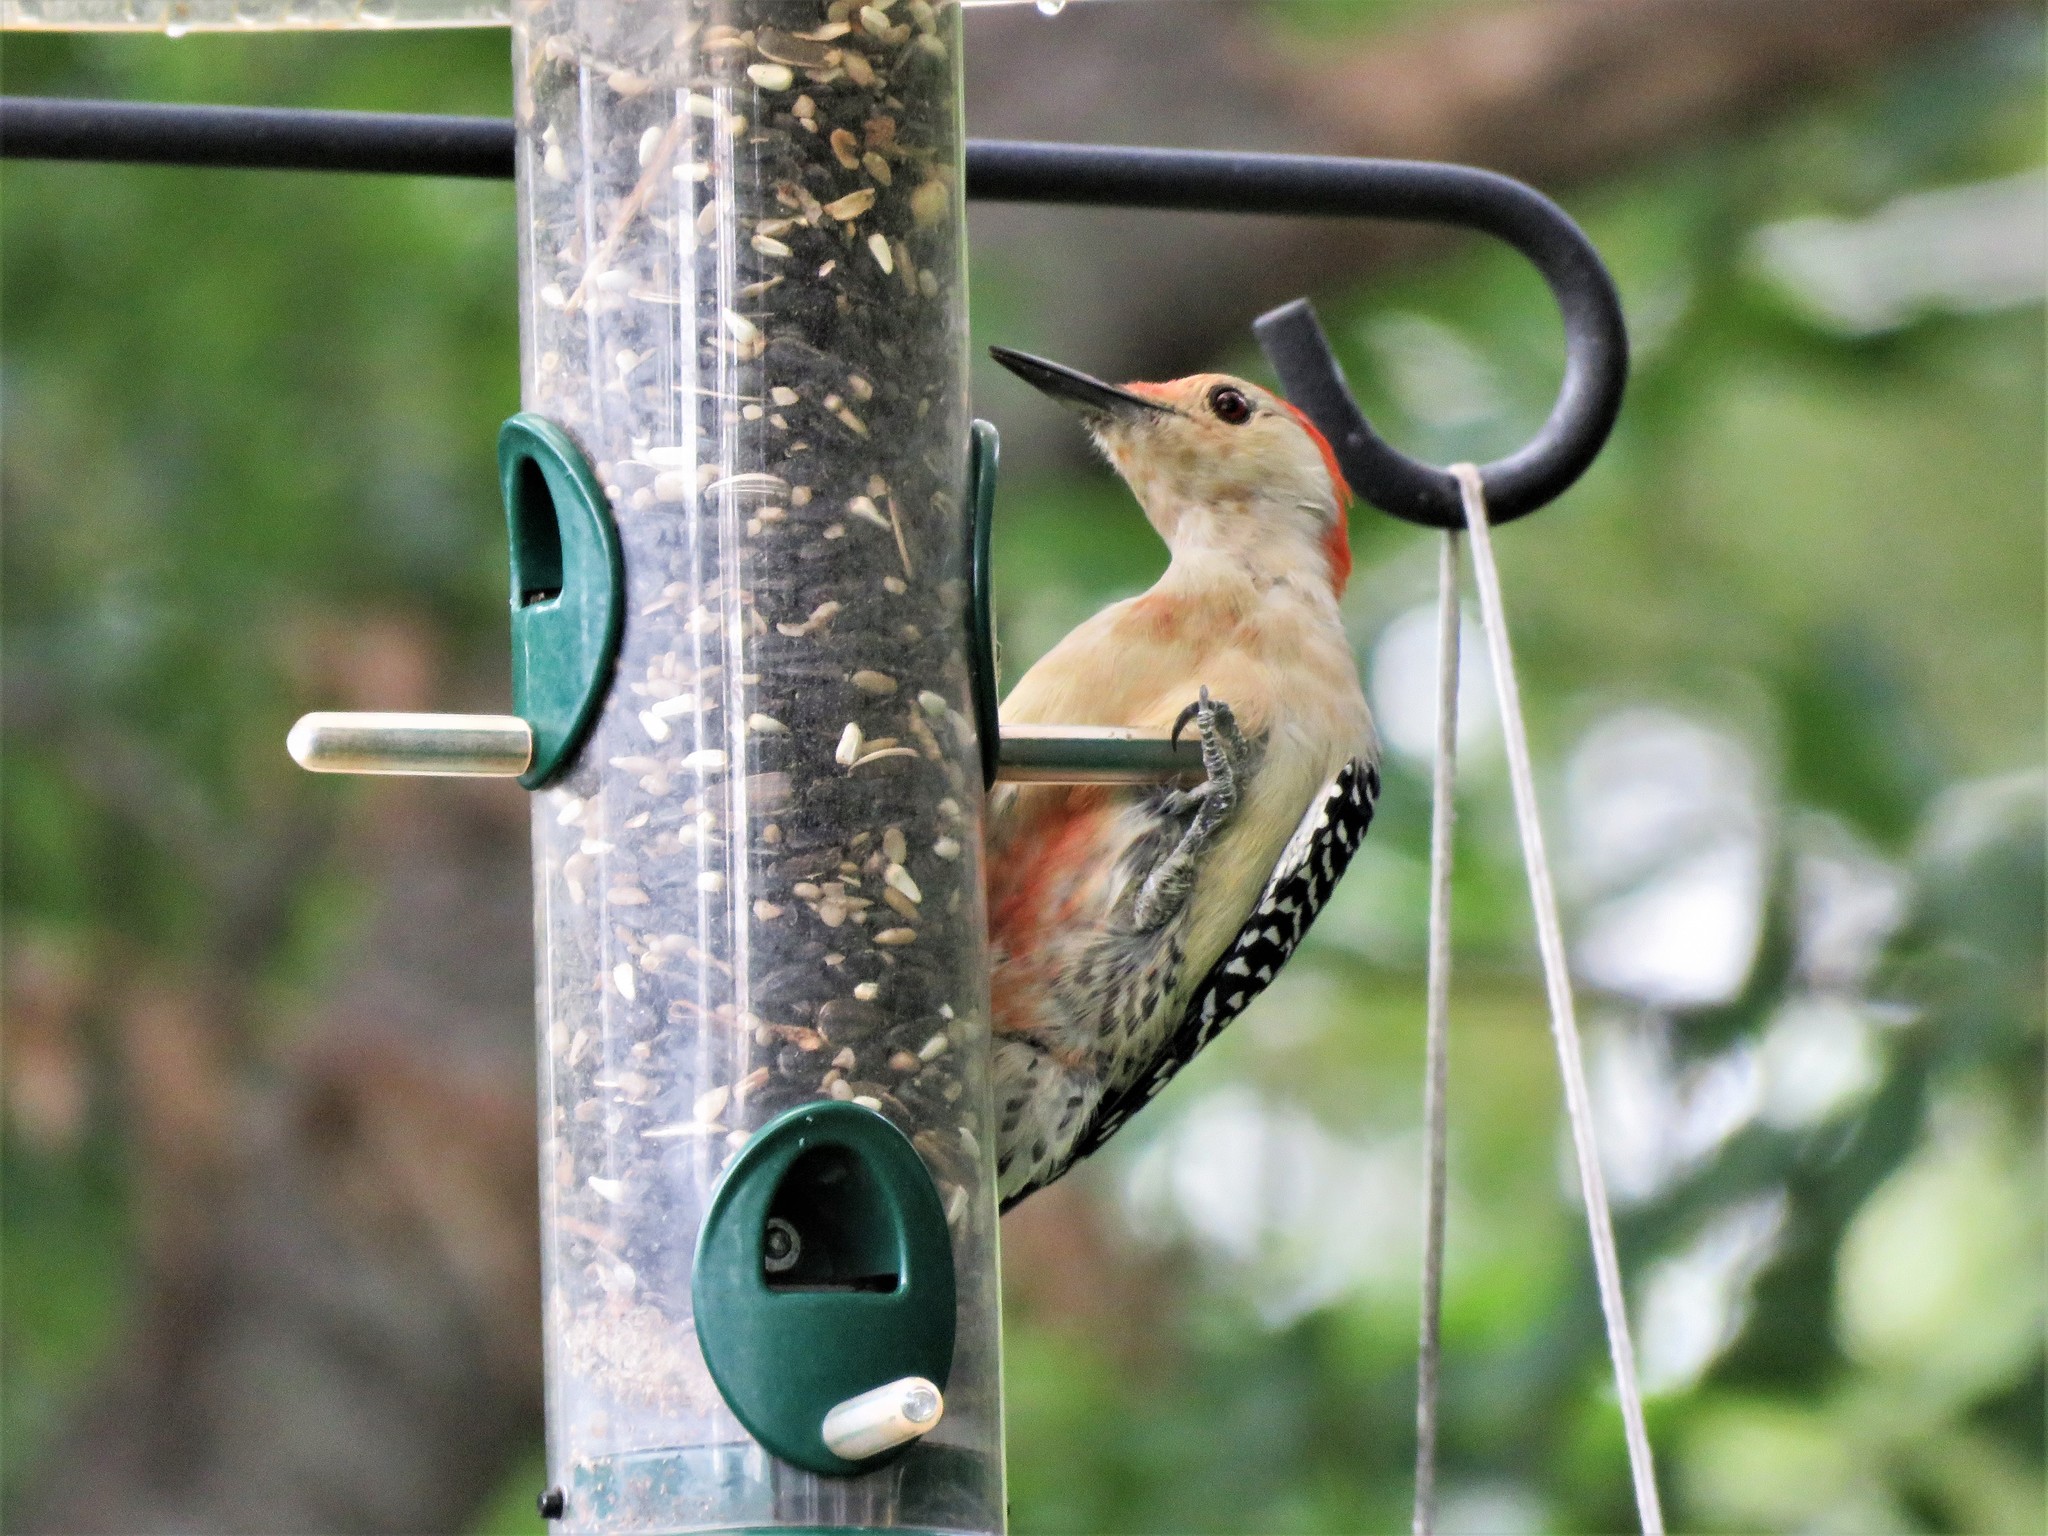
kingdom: Animalia
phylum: Chordata
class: Aves
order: Piciformes
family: Picidae
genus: Melanerpes
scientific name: Melanerpes carolinus
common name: Red-bellied woodpecker
